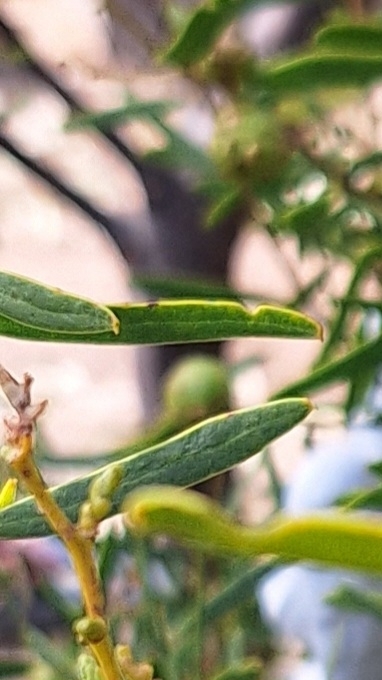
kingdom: Plantae
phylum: Tracheophyta
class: Magnoliopsida
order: Fabales
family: Fabaceae
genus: Acacia
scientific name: Acacia ligulata
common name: Dune wattle
